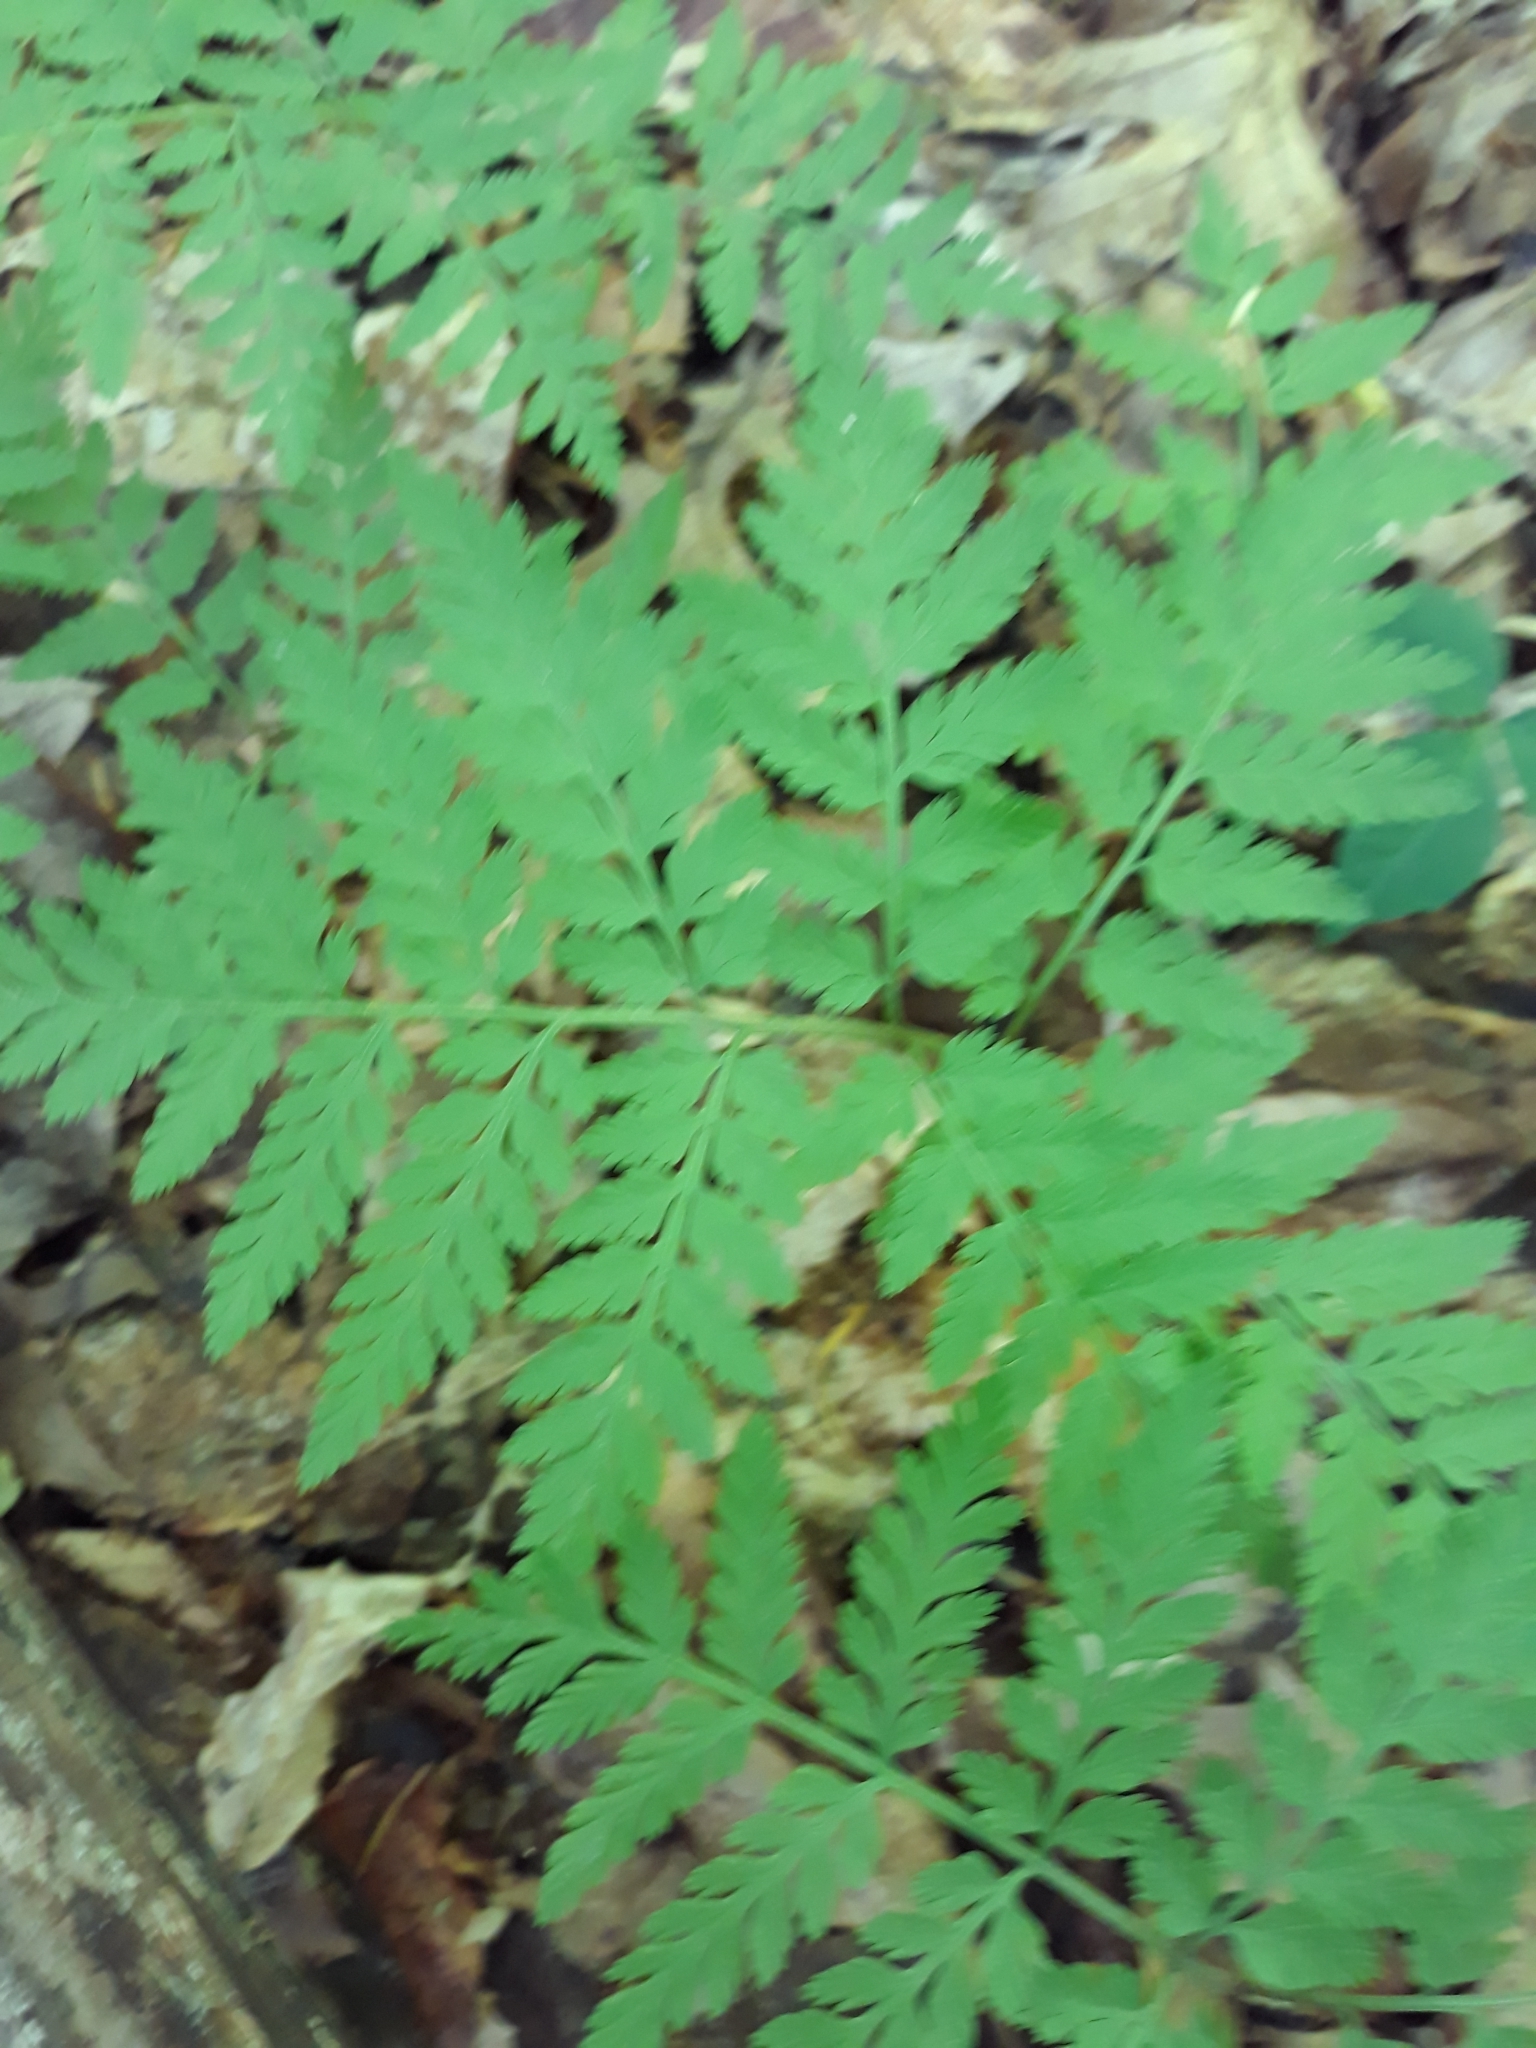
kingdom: Plantae
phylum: Tracheophyta
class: Polypodiopsida
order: Ophioglossales
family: Ophioglossaceae
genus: Botrypus
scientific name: Botrypus virginianus
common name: Common grapefern
